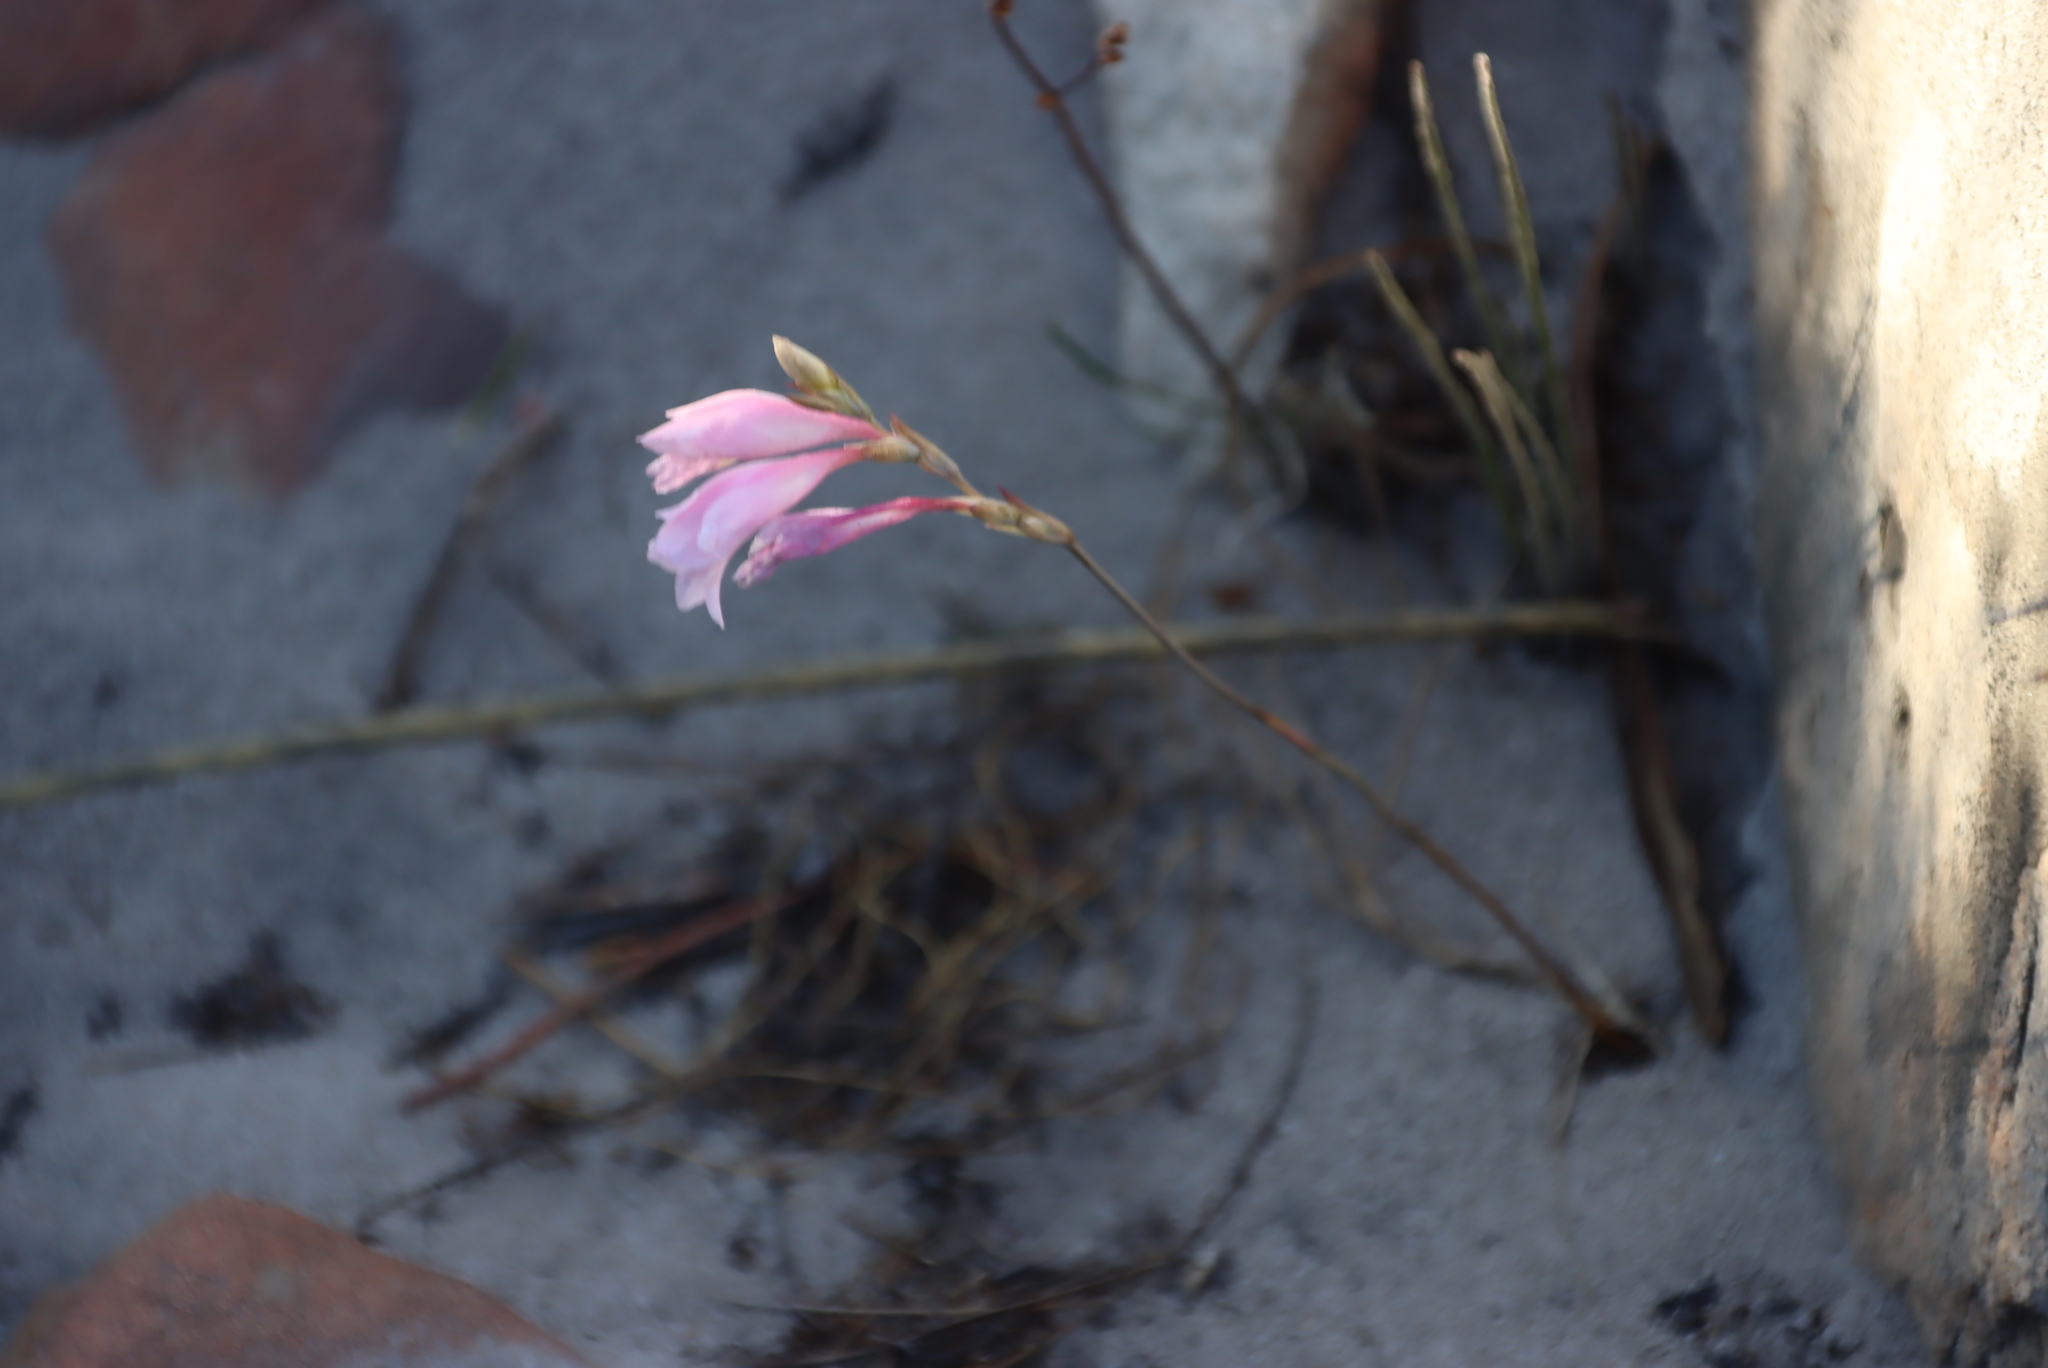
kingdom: Plantae
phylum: Tracheophyta
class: Liliopsida
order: Asparagales
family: Iridaceae
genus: Gladiolus
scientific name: Gladiolus brevifolius
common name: March pypie
